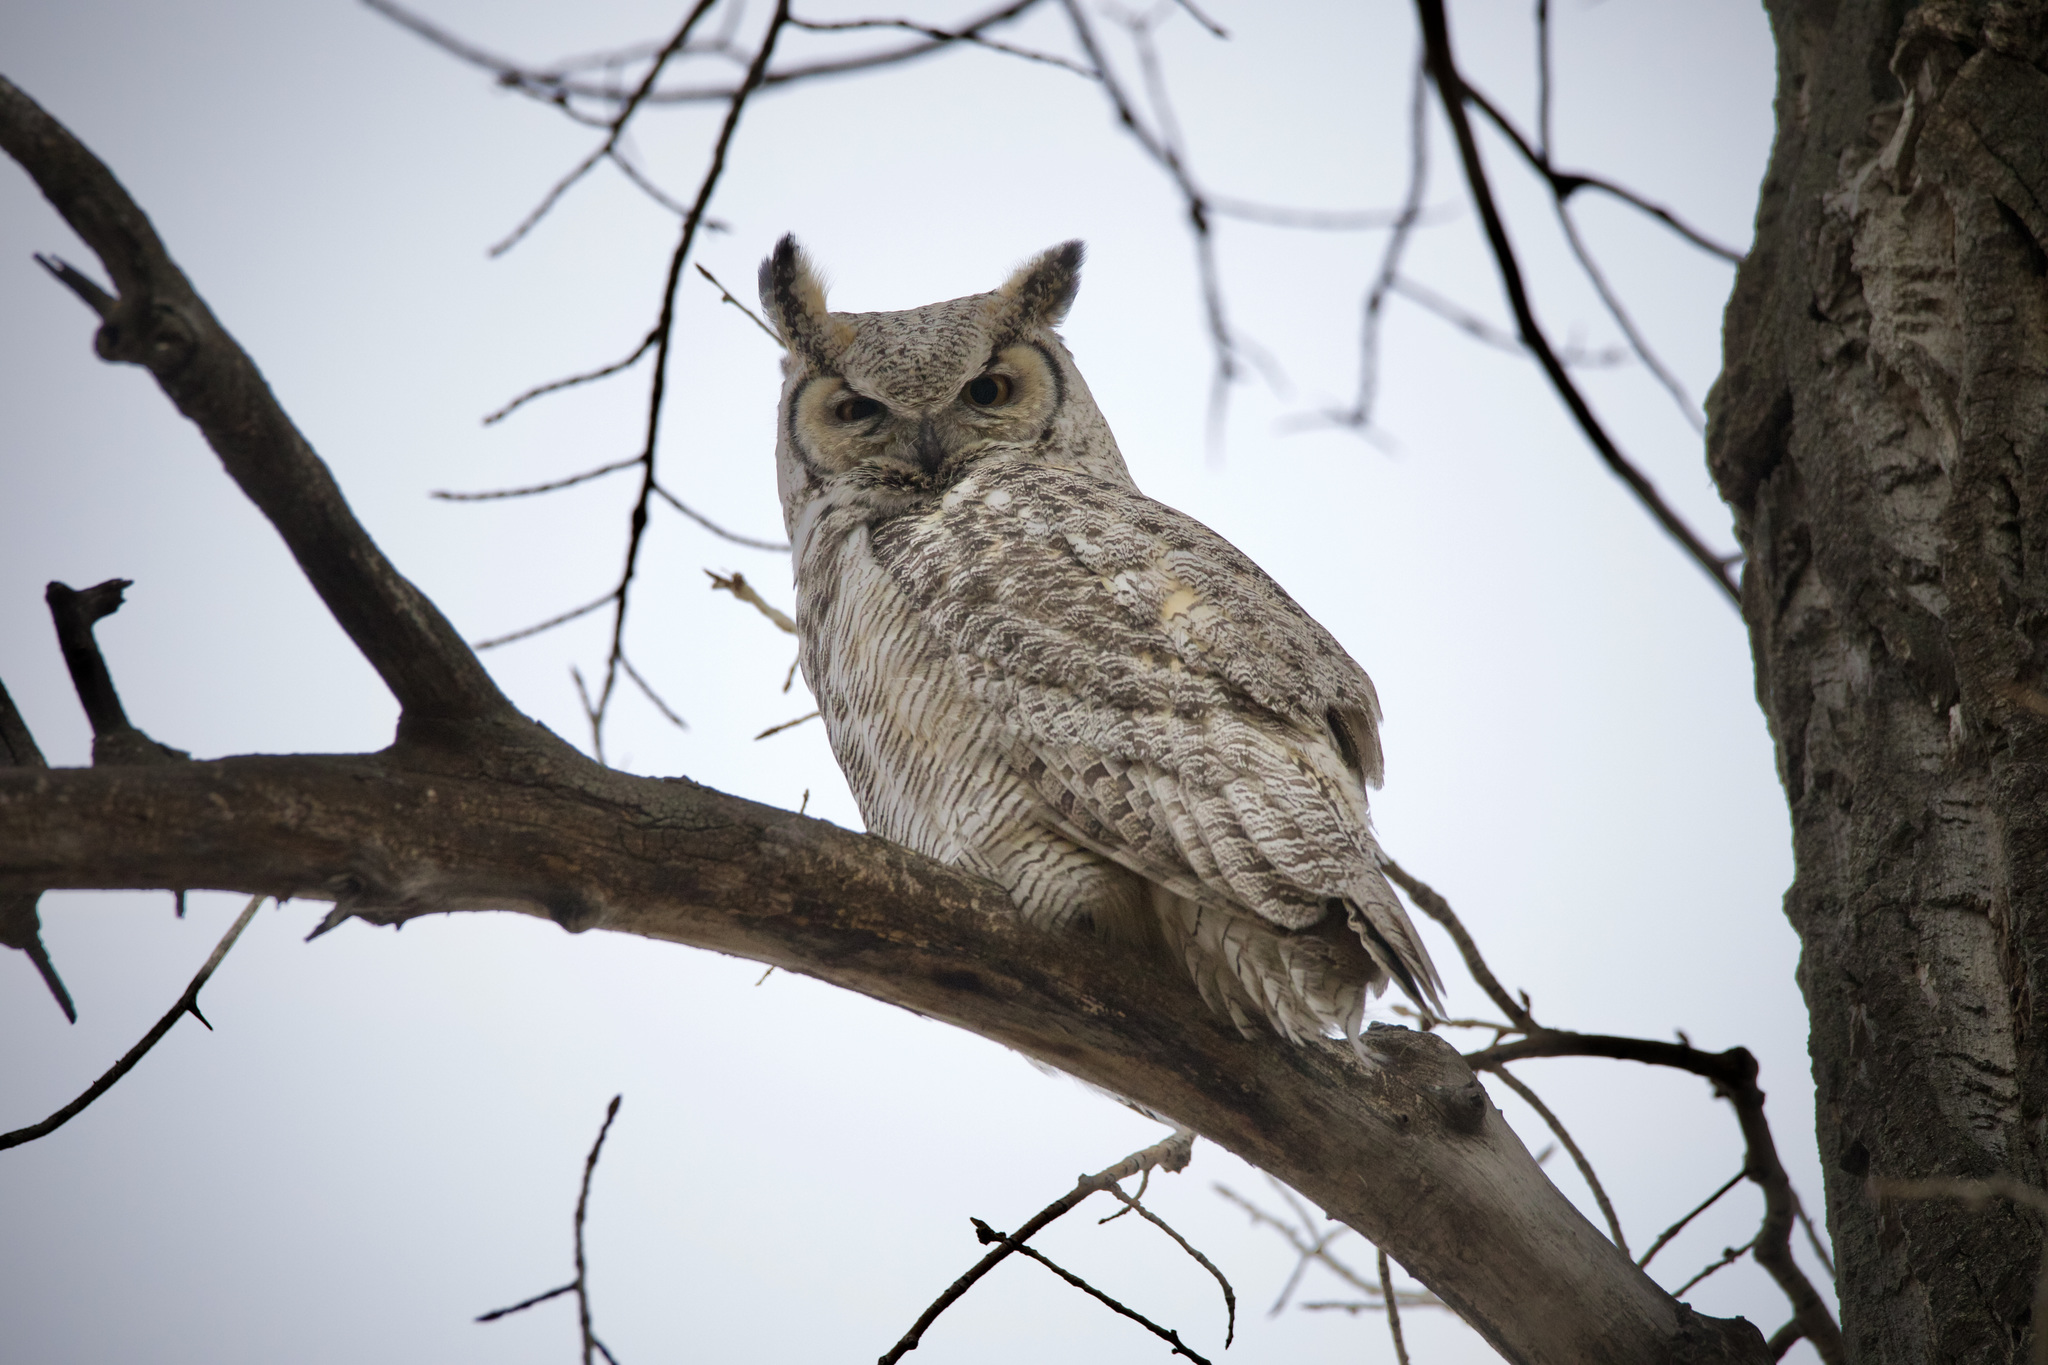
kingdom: Animalia
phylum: Chordata
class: Aves
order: Strigiformes
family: Strigidae
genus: Bubo
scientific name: Bubo virginianus
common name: Great horned owl
